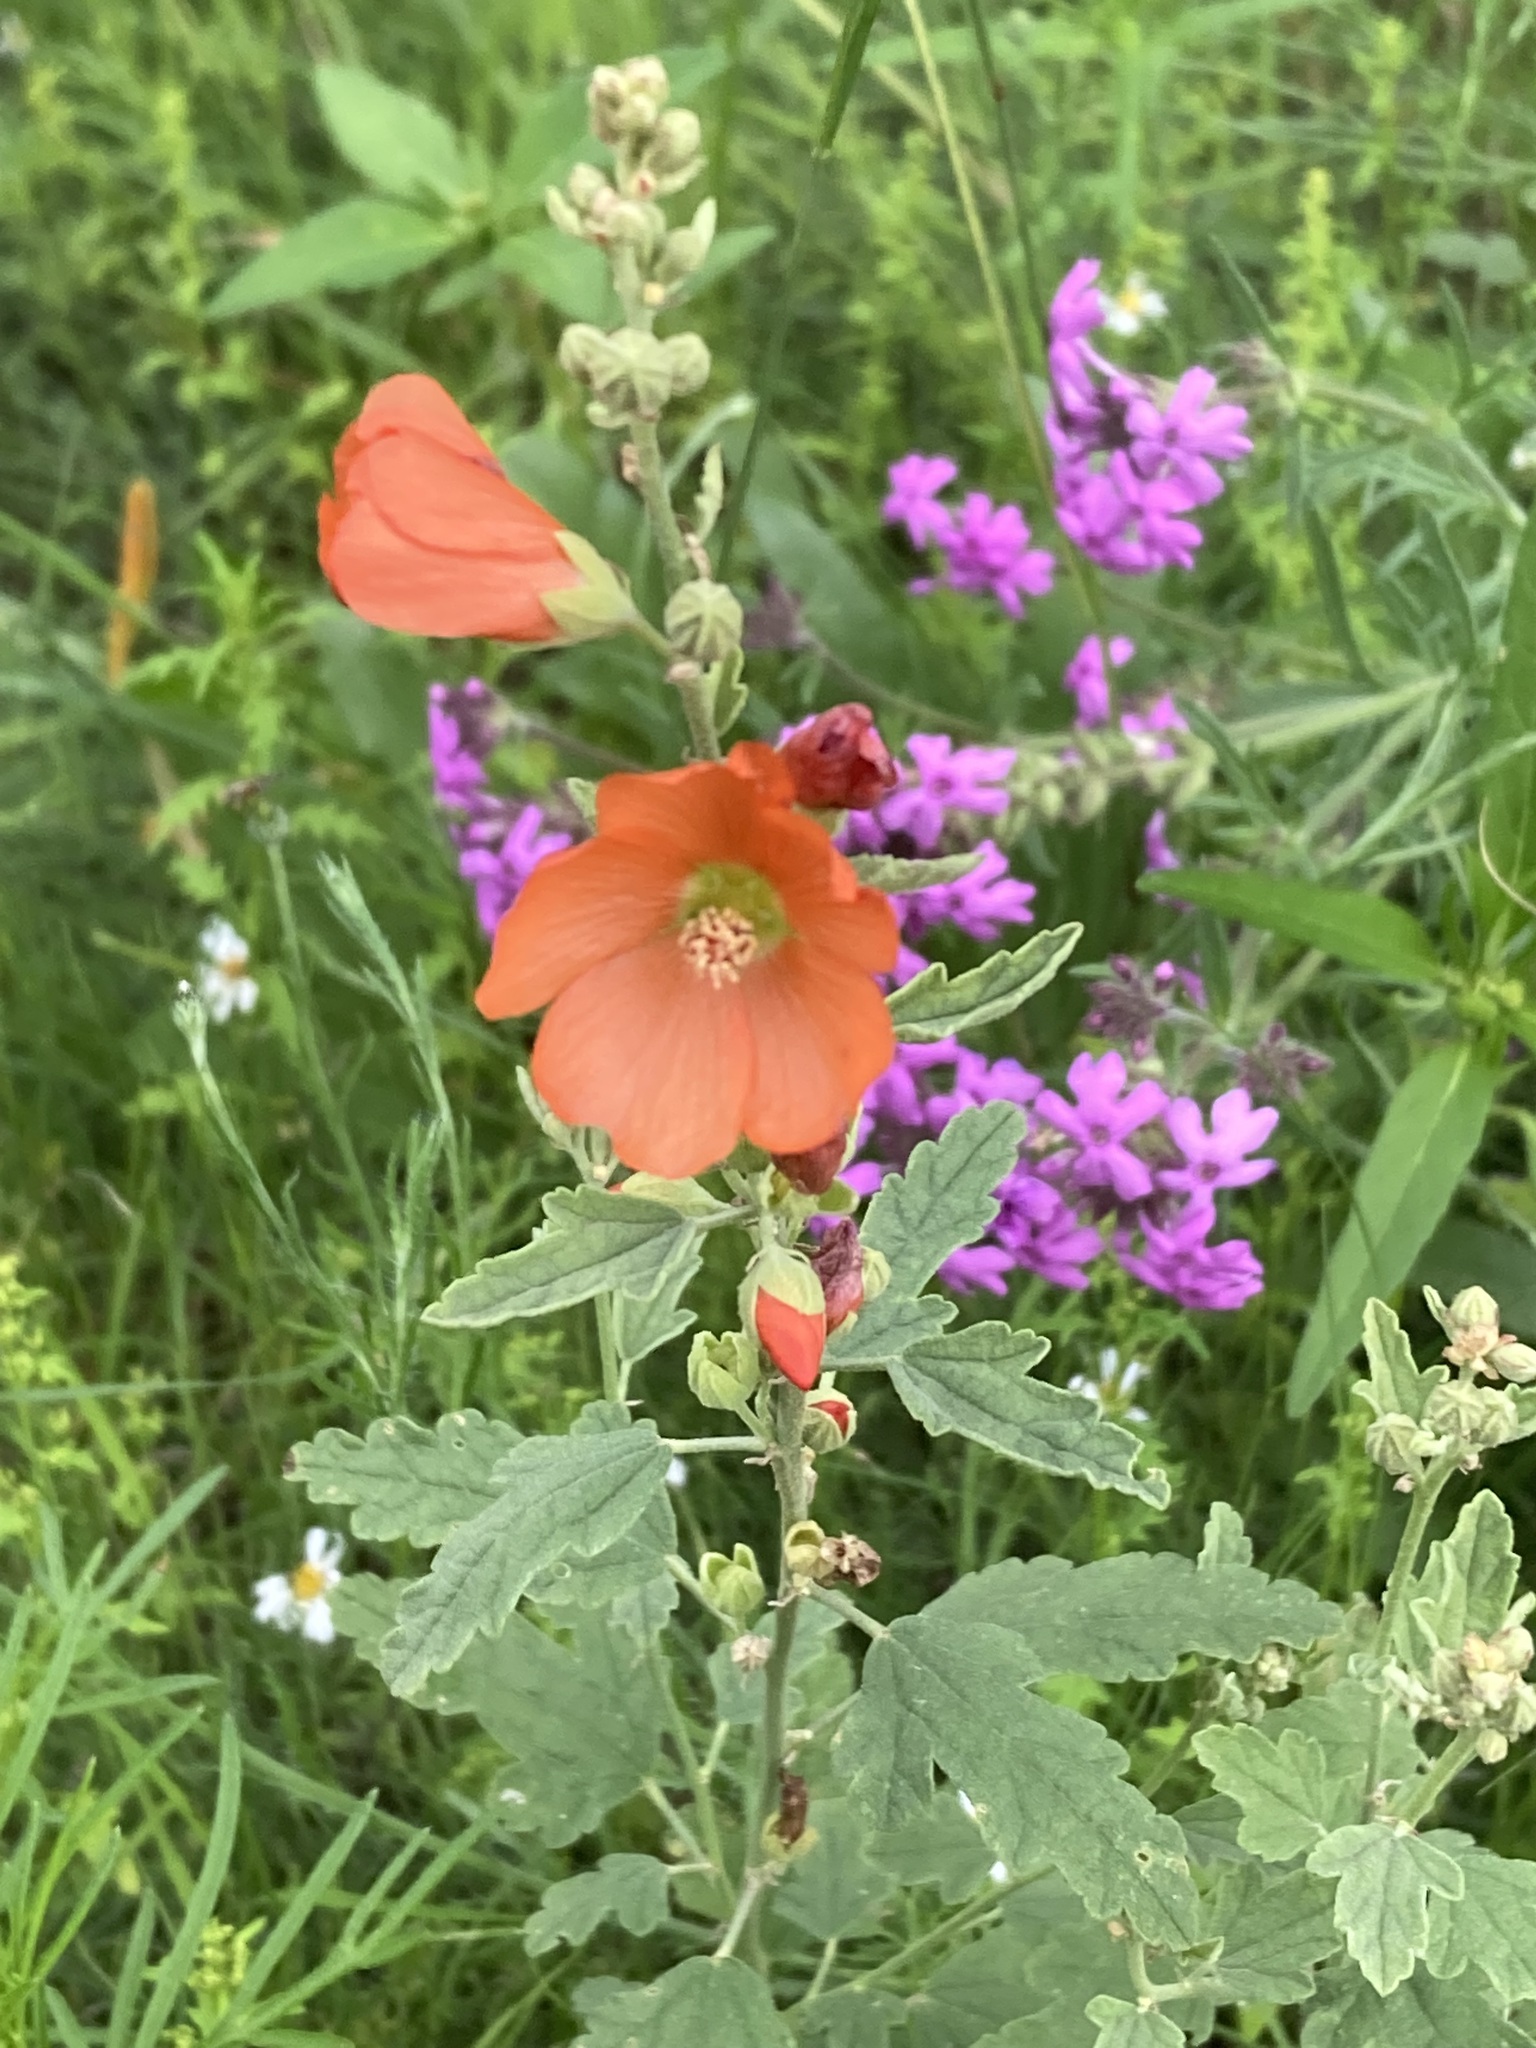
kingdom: Plantae
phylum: Tracheophyta
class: Magnoliopsida
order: Malvales
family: Malvaceae
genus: Sphaeralcea
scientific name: Sphaeralcea fendleri
